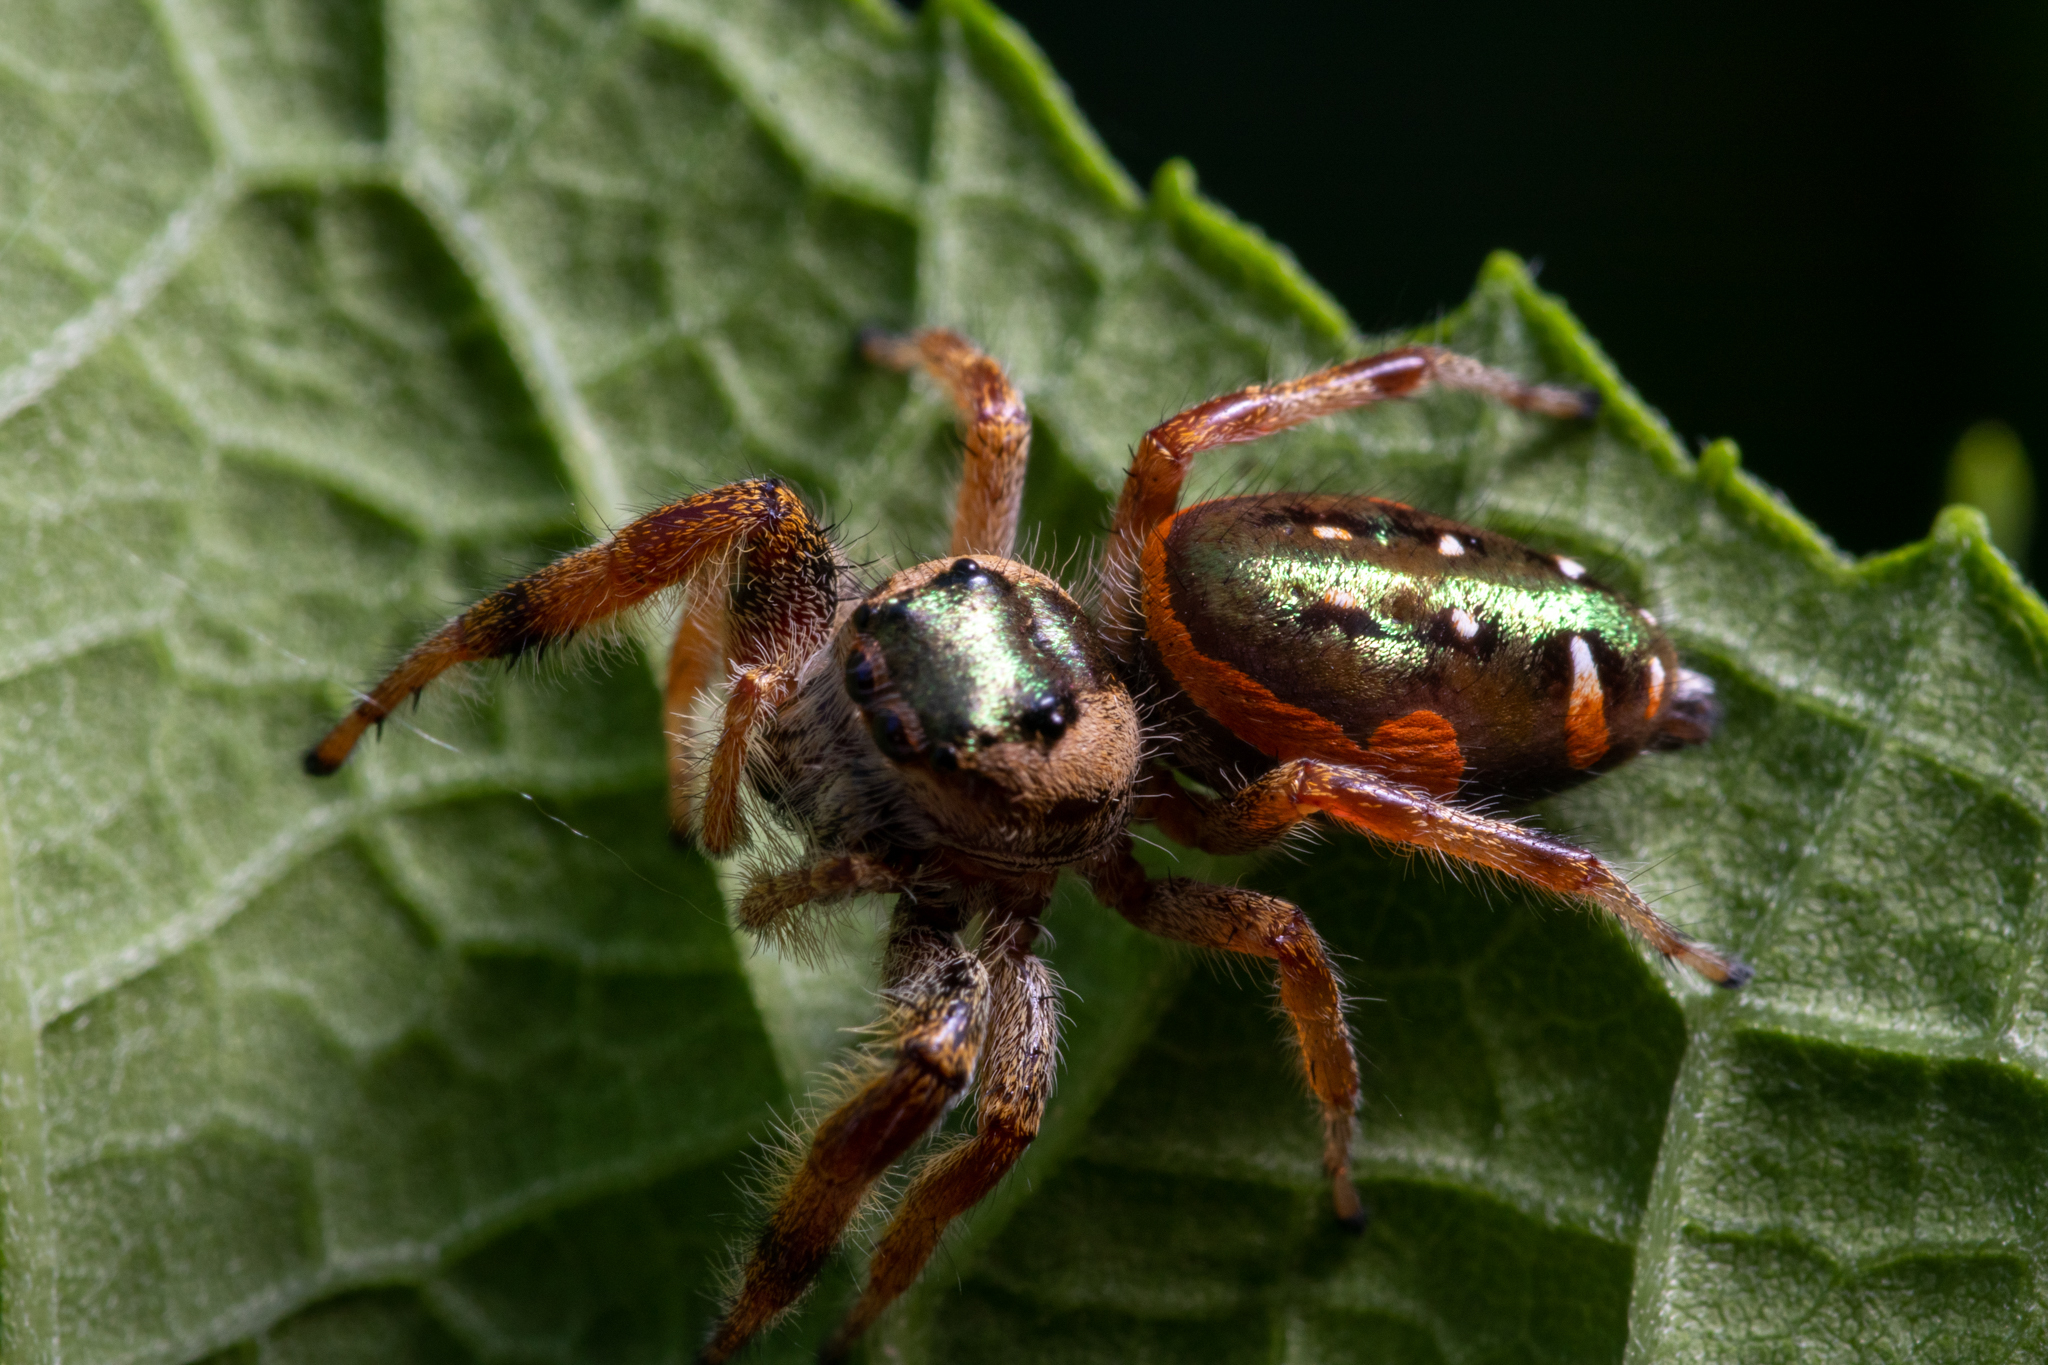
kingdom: Animalia
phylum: Arthropoda
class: Arachnida
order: Araneae
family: Salticidae
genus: Paraphidippus
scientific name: Paraphidippus aurantius
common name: Jumping spiders
